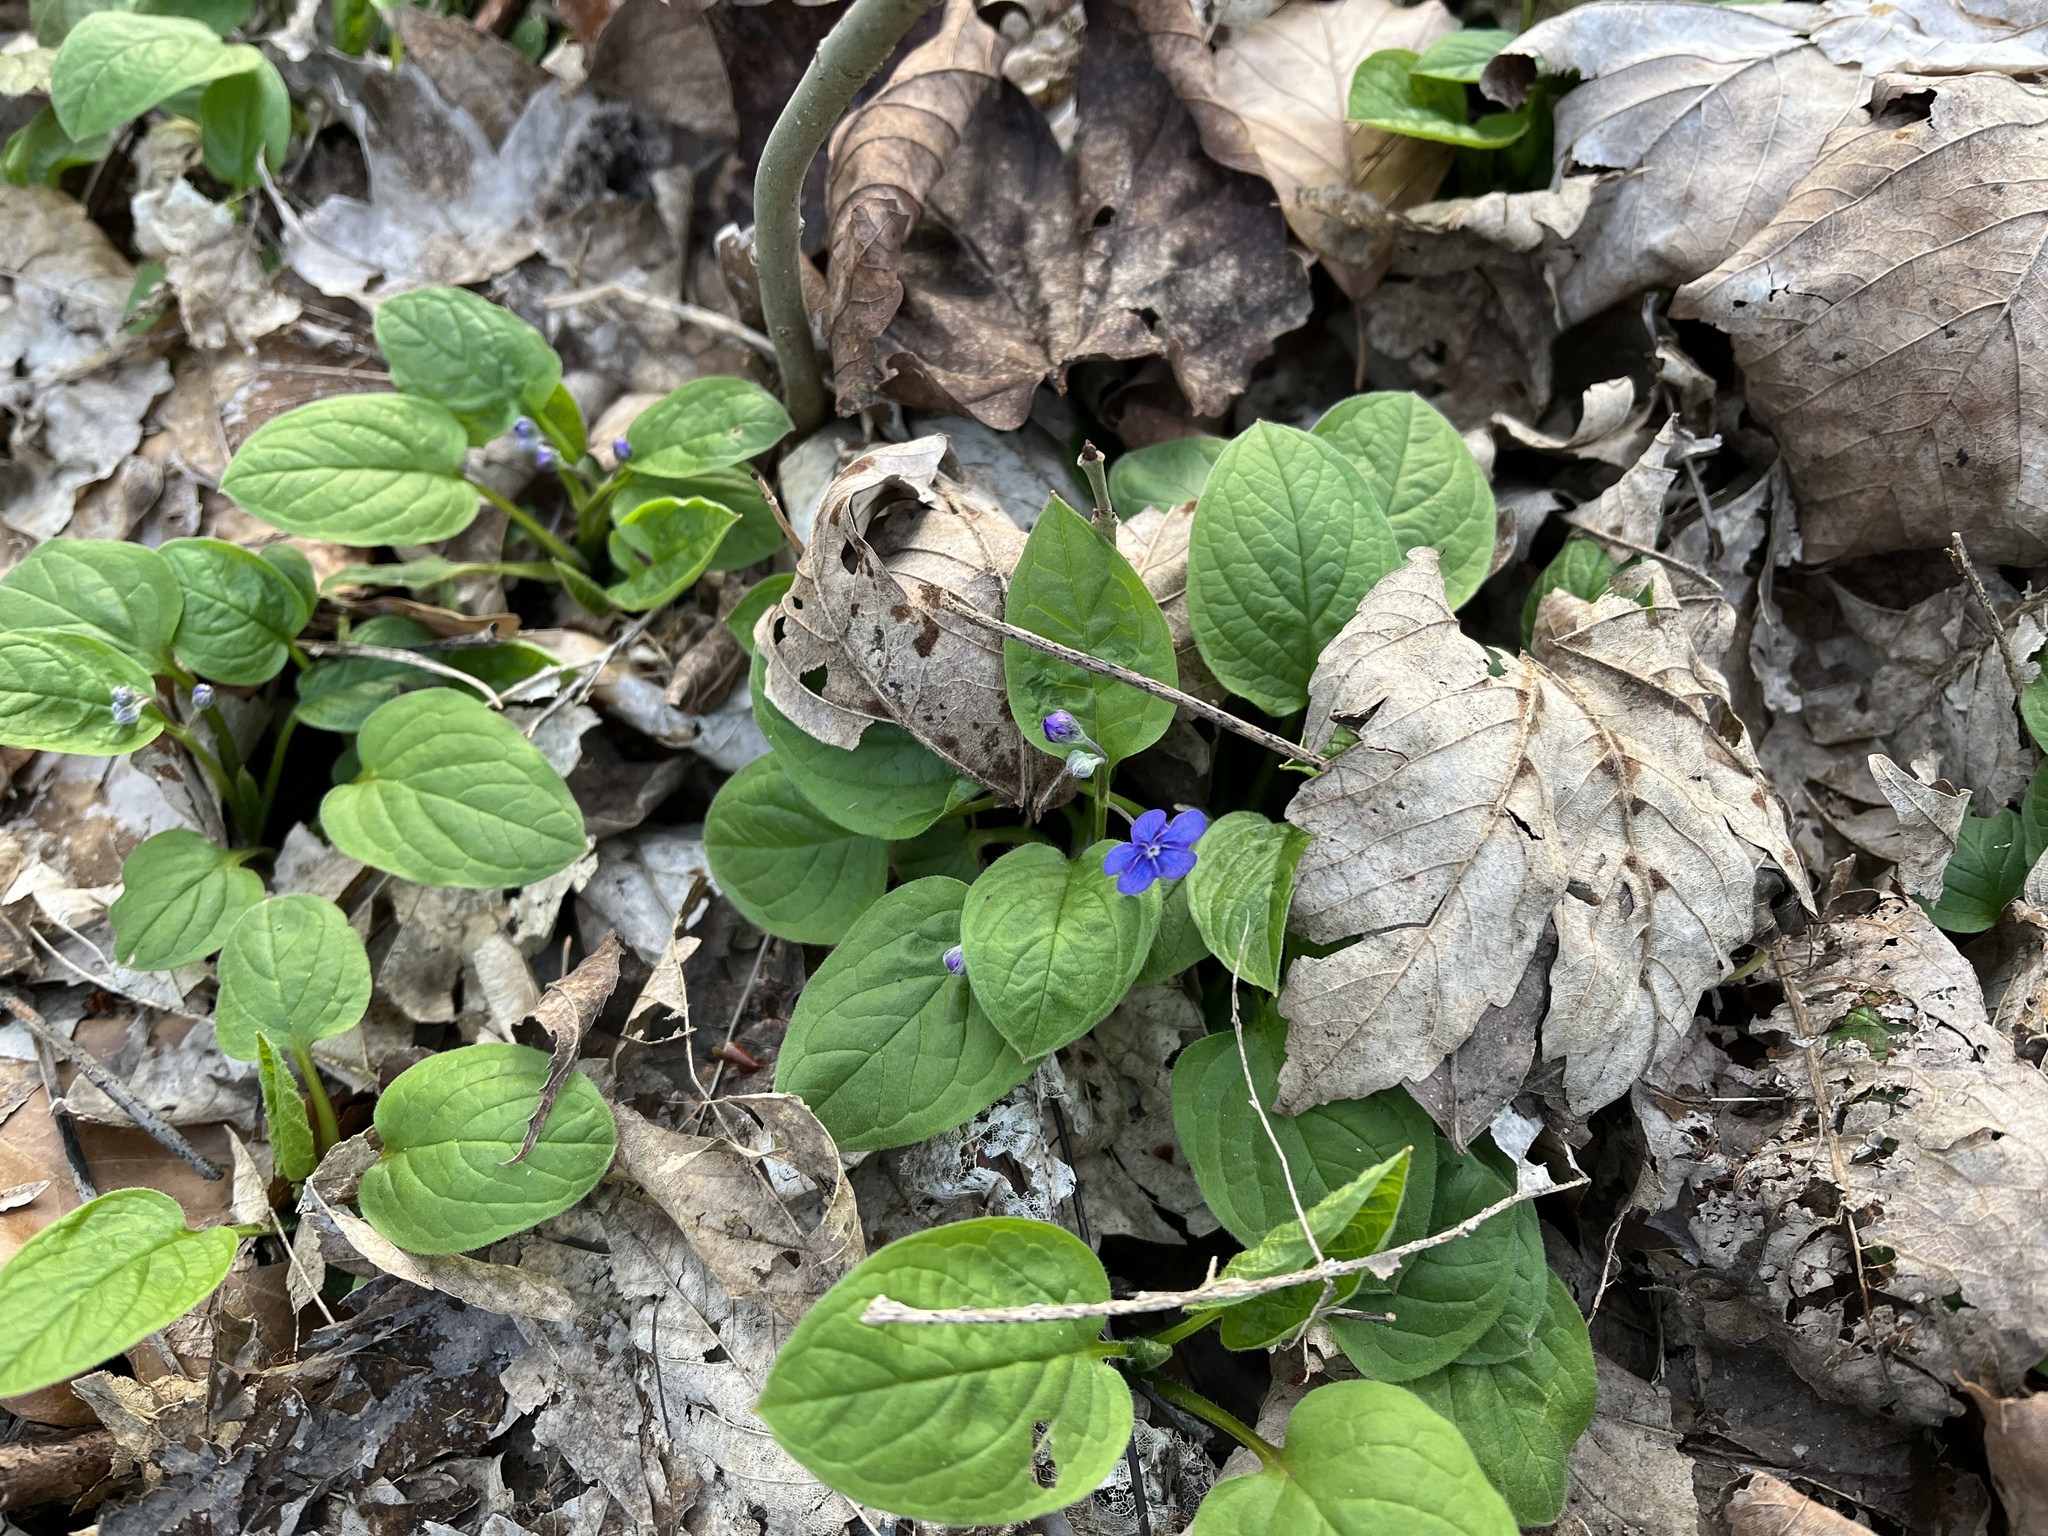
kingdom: Plantae
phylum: Tracheophyta
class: Magnoliopsida
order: Boraginales
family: Boraginaceae
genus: Omphalodes
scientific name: Omphalodes verna
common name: Blue-eyed-mary
